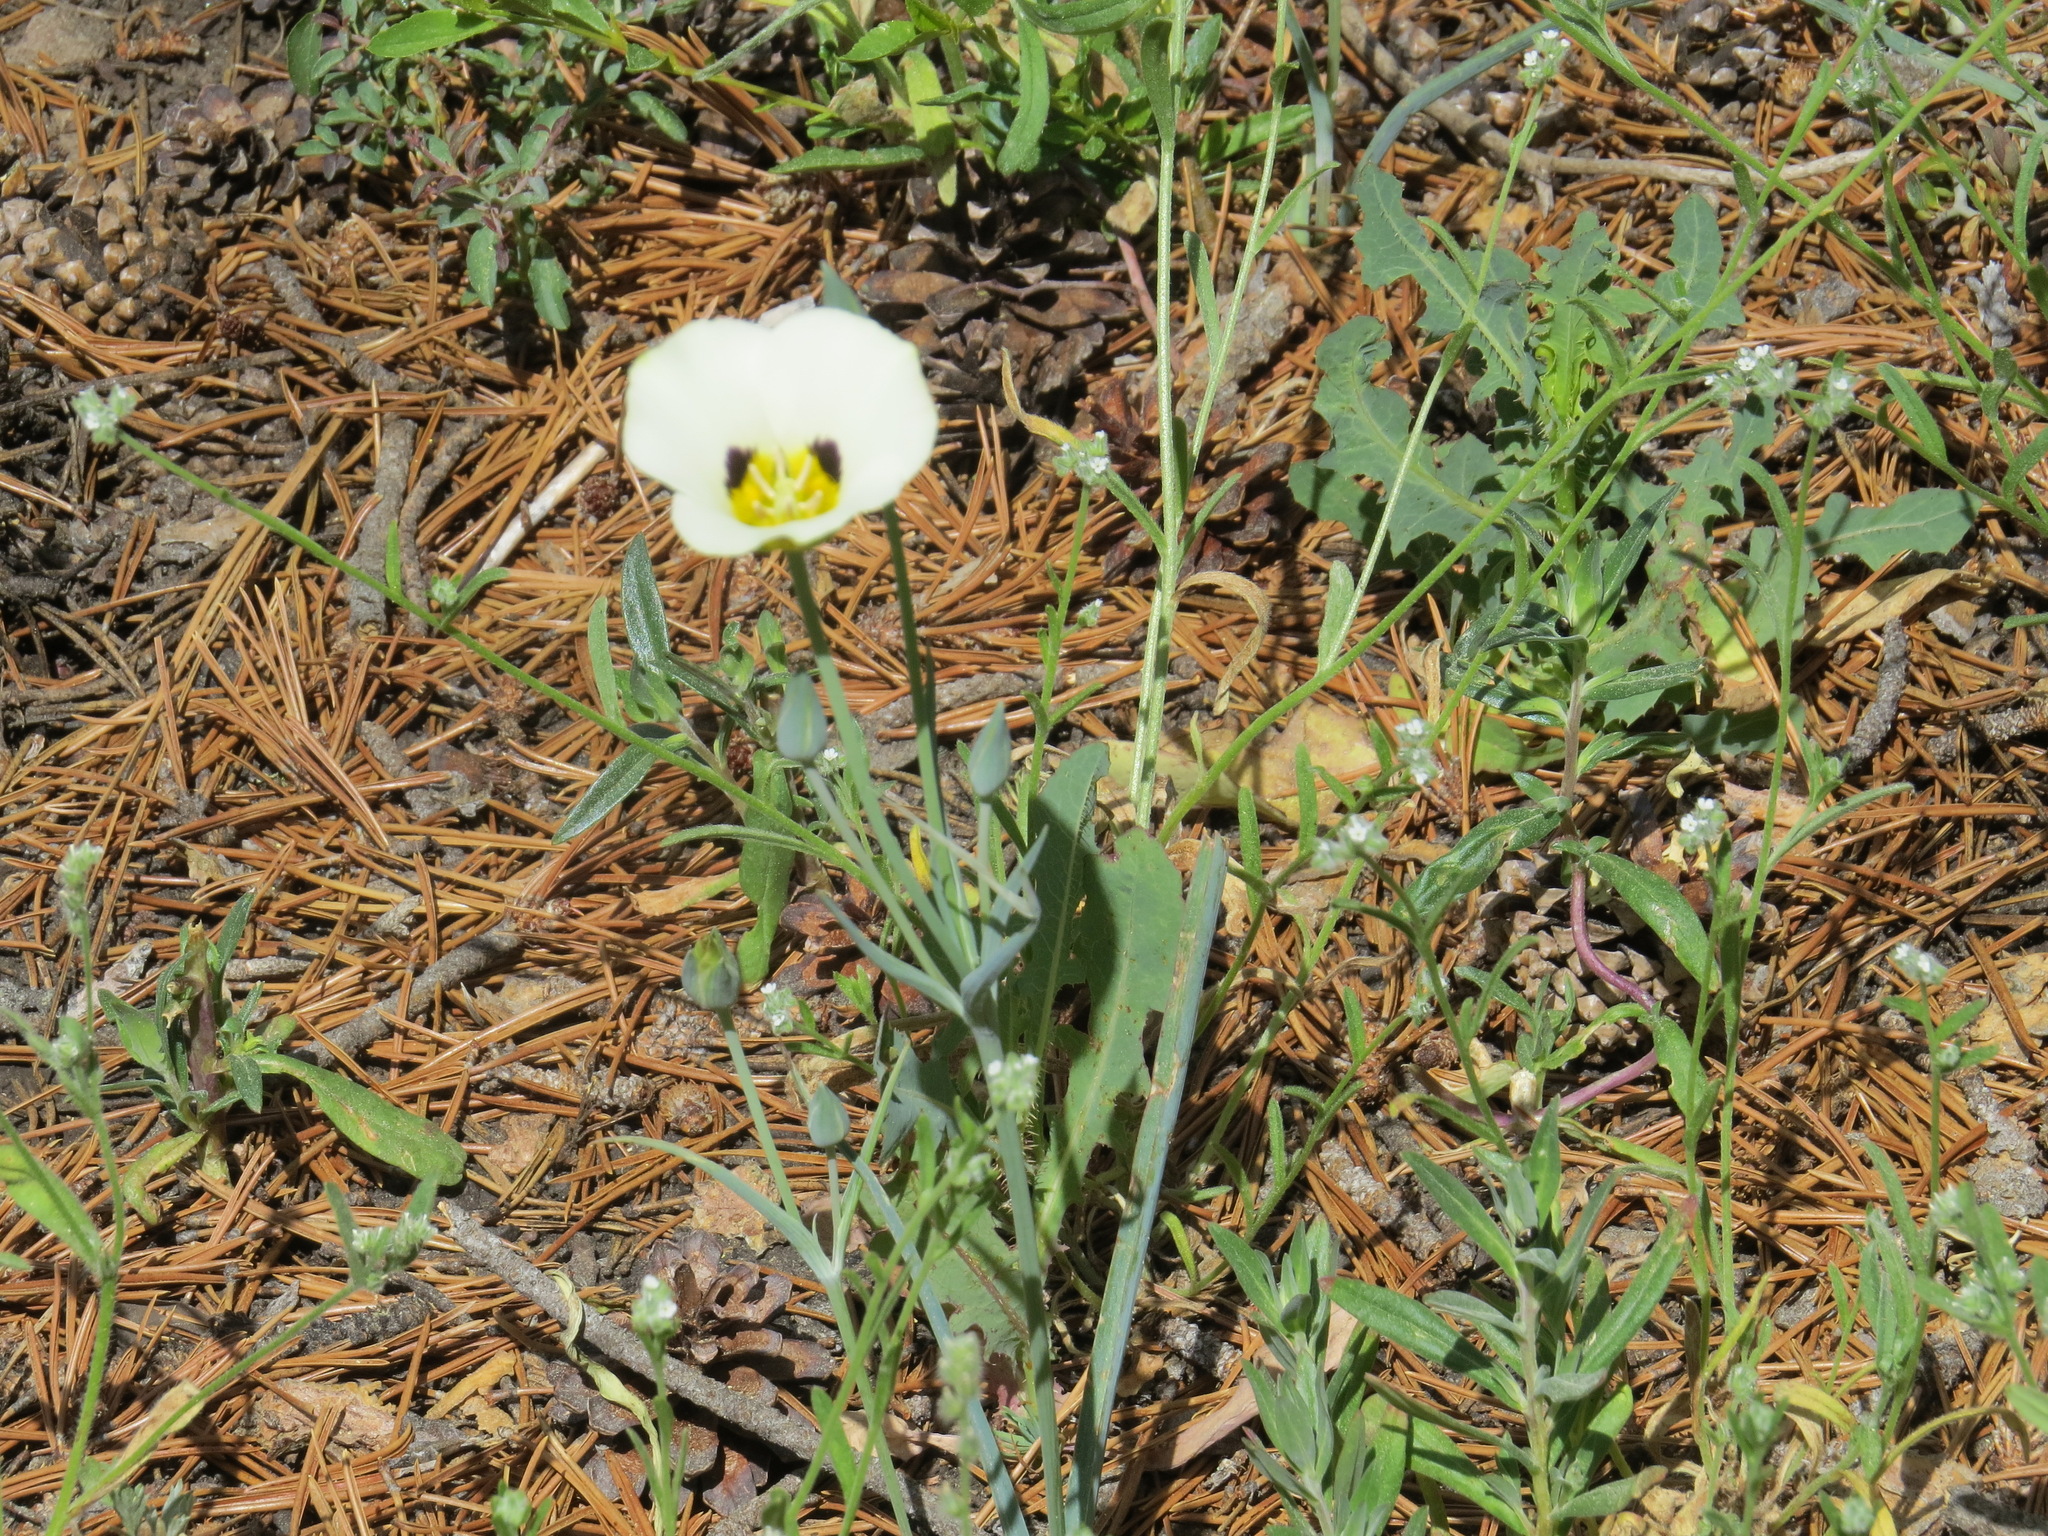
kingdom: Plantae
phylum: Tracheophyta
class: Liliopsida
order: Liliales
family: Liliaceae
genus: Calochortus
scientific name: Calochortus leichtlinii
